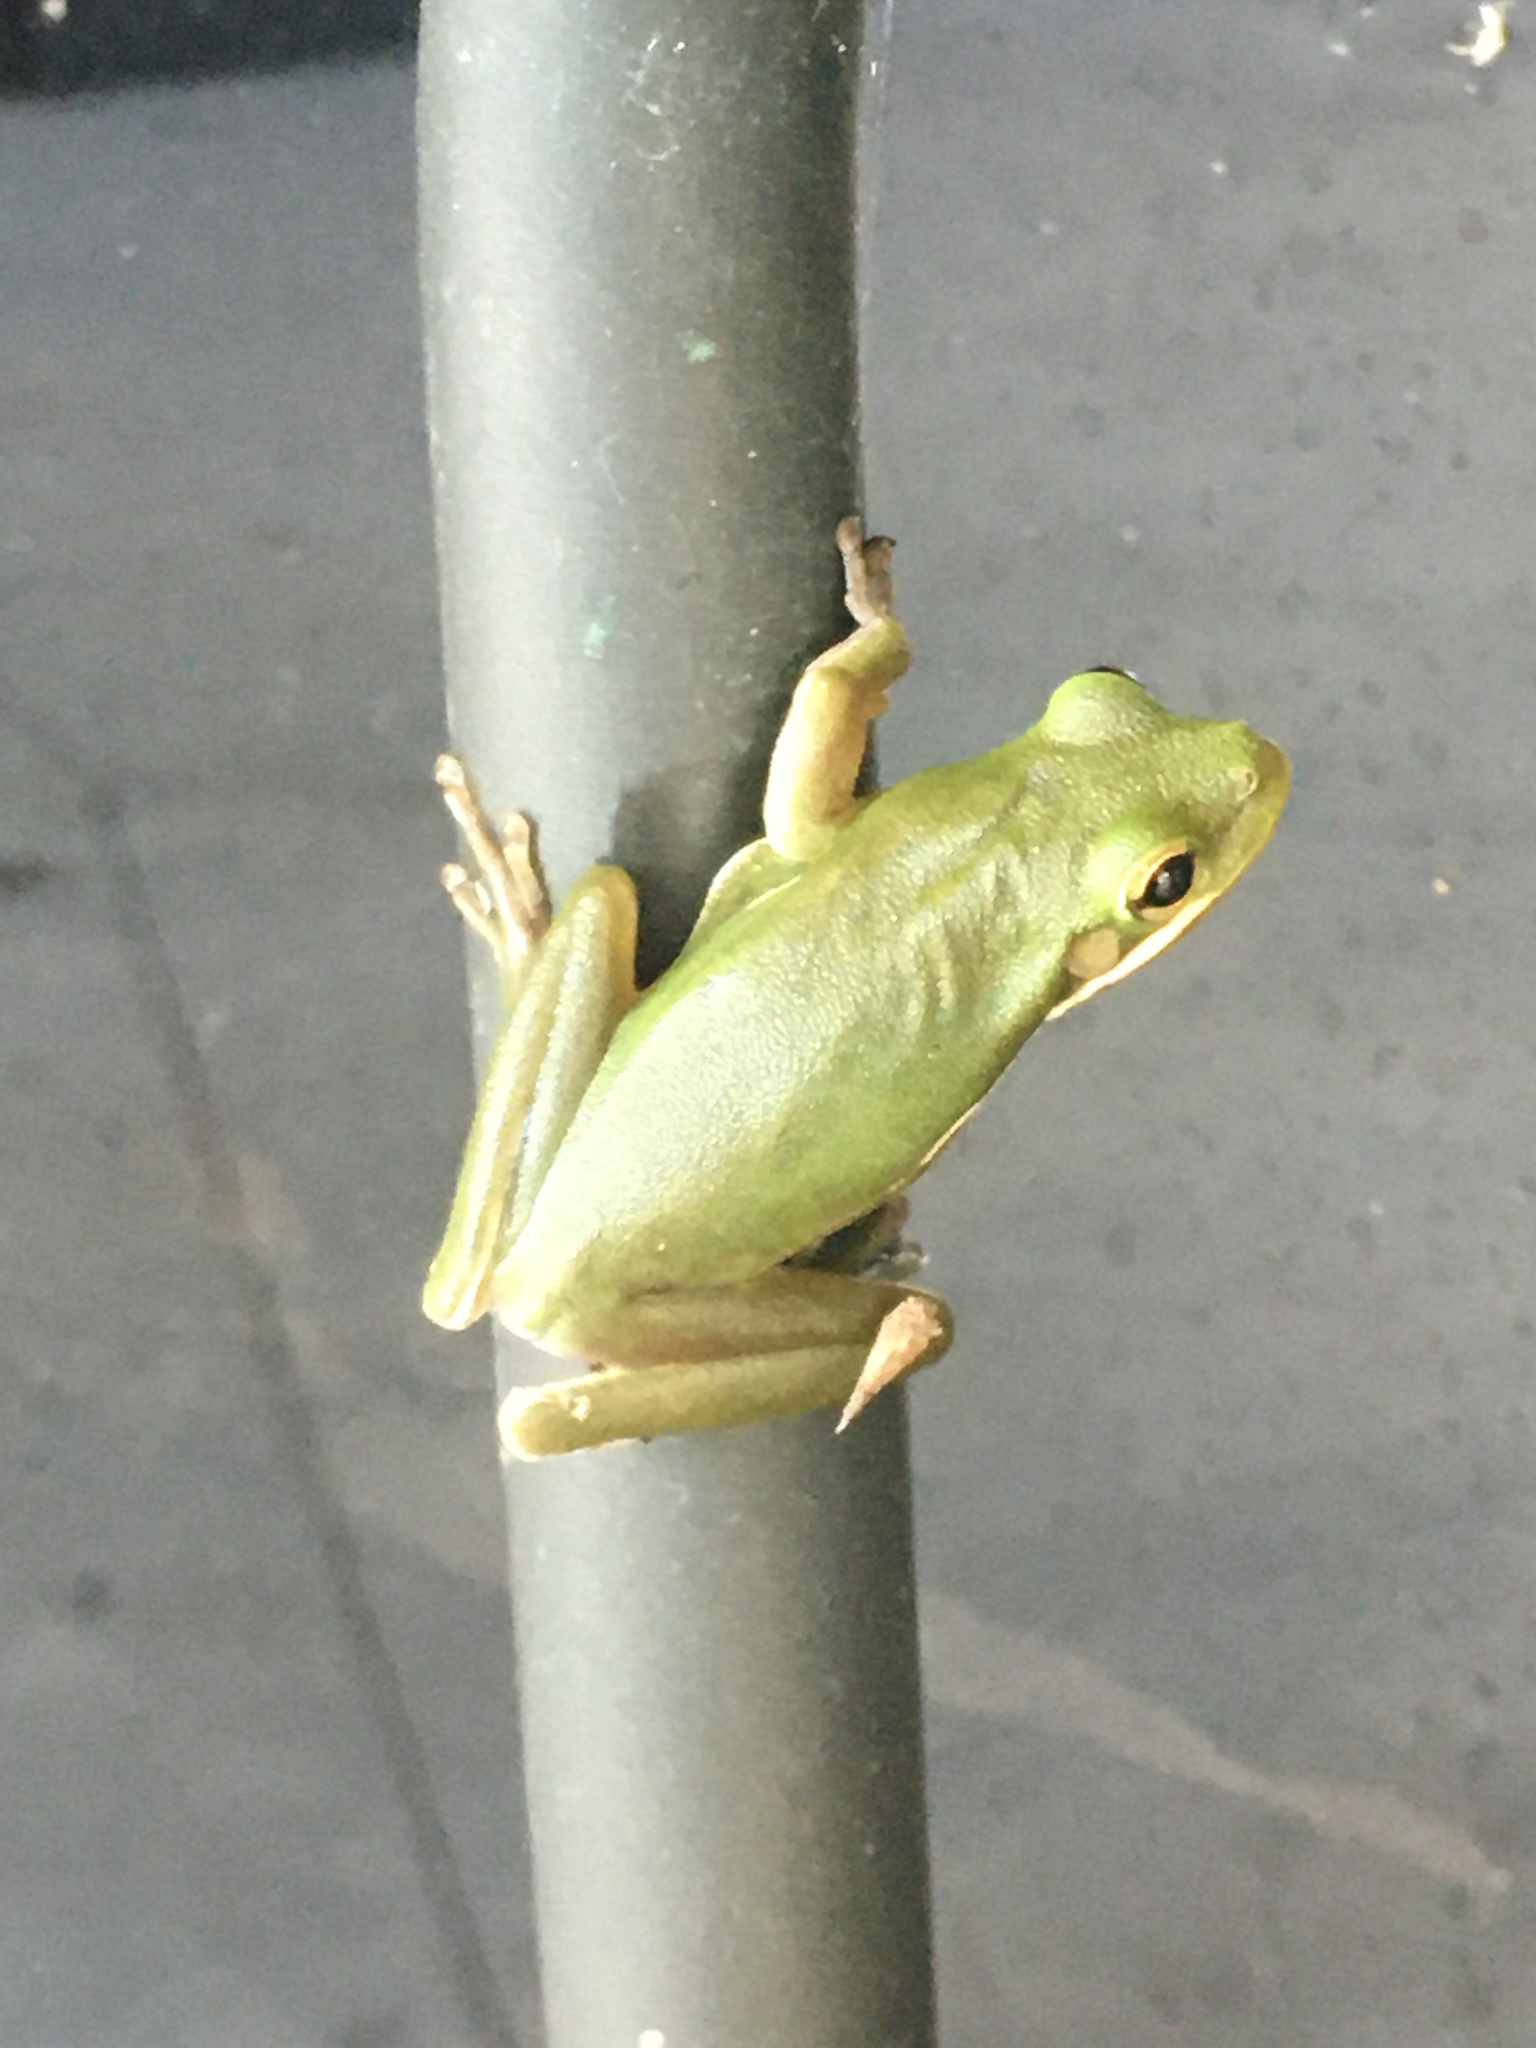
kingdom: Animalia
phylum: Chordata
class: Amphibia
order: Anura
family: Hylidae
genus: Dryophytes
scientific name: Dryophytes cinereus
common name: Green treefrog
